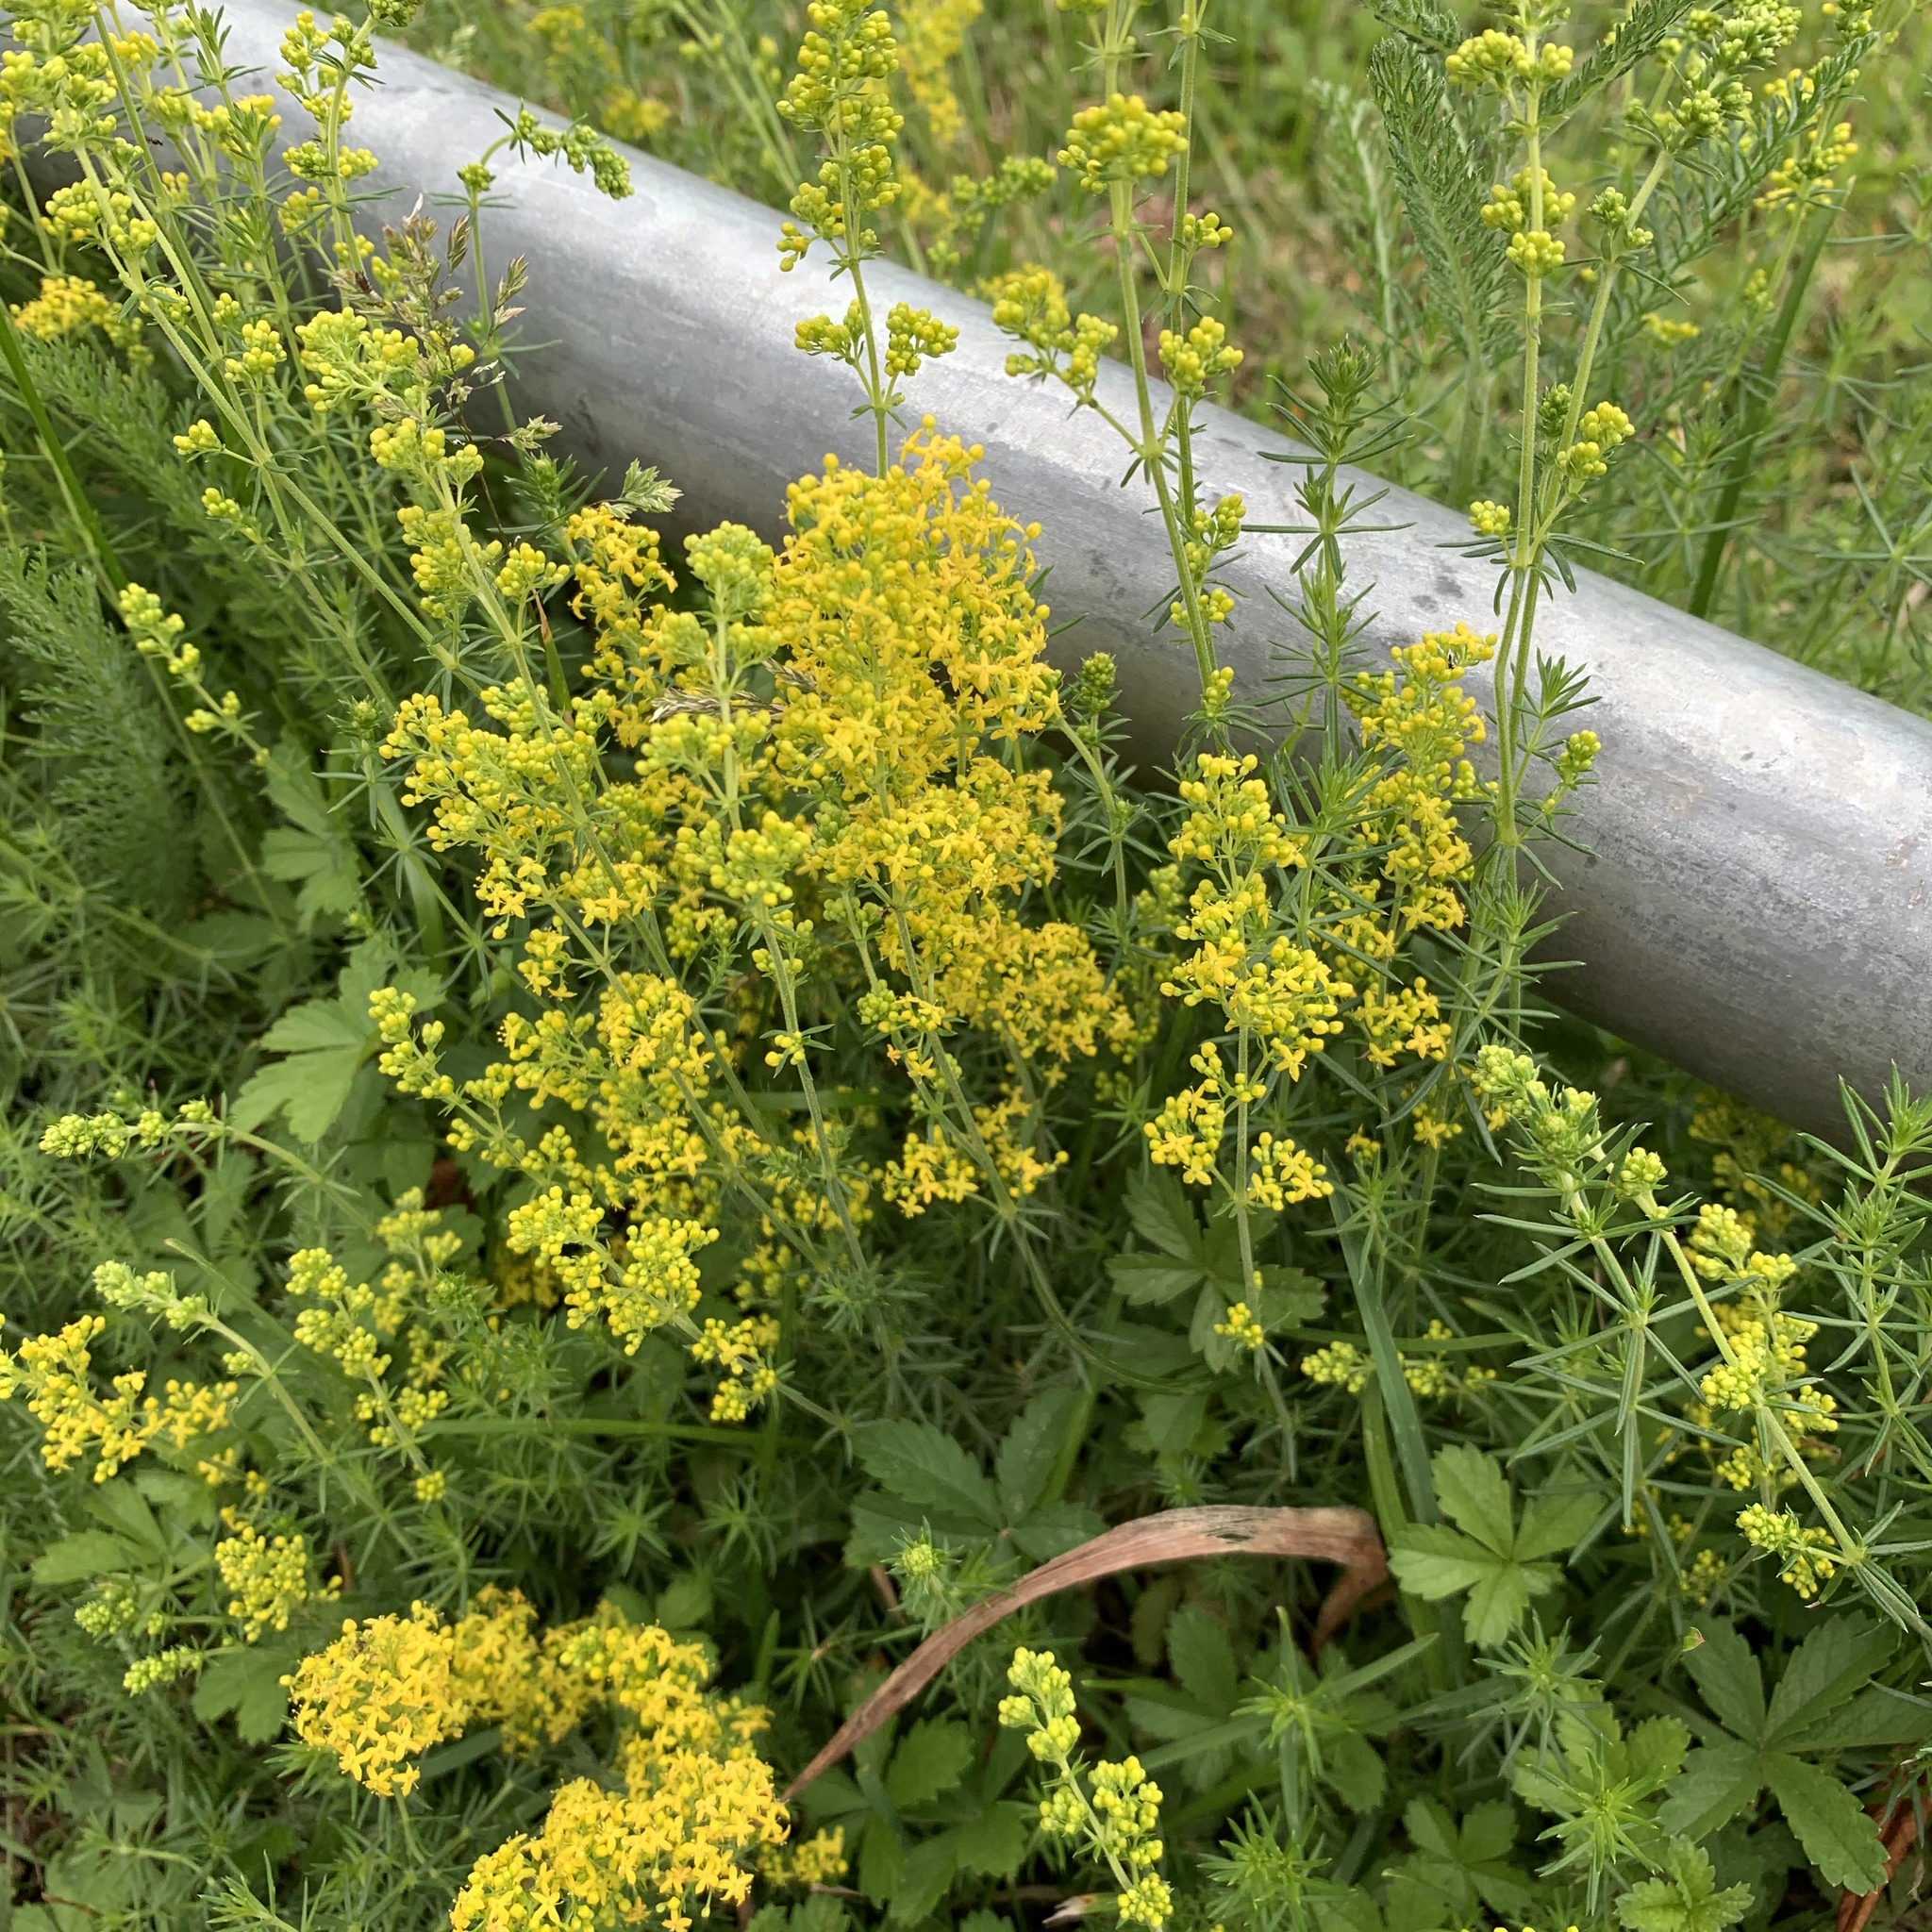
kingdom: Plantae
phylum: Tracheophyta
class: Magnoliopsida
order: Gentianales
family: Rubiaceae
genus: Galium
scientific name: Galium verum
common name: Lady's bedstraw
